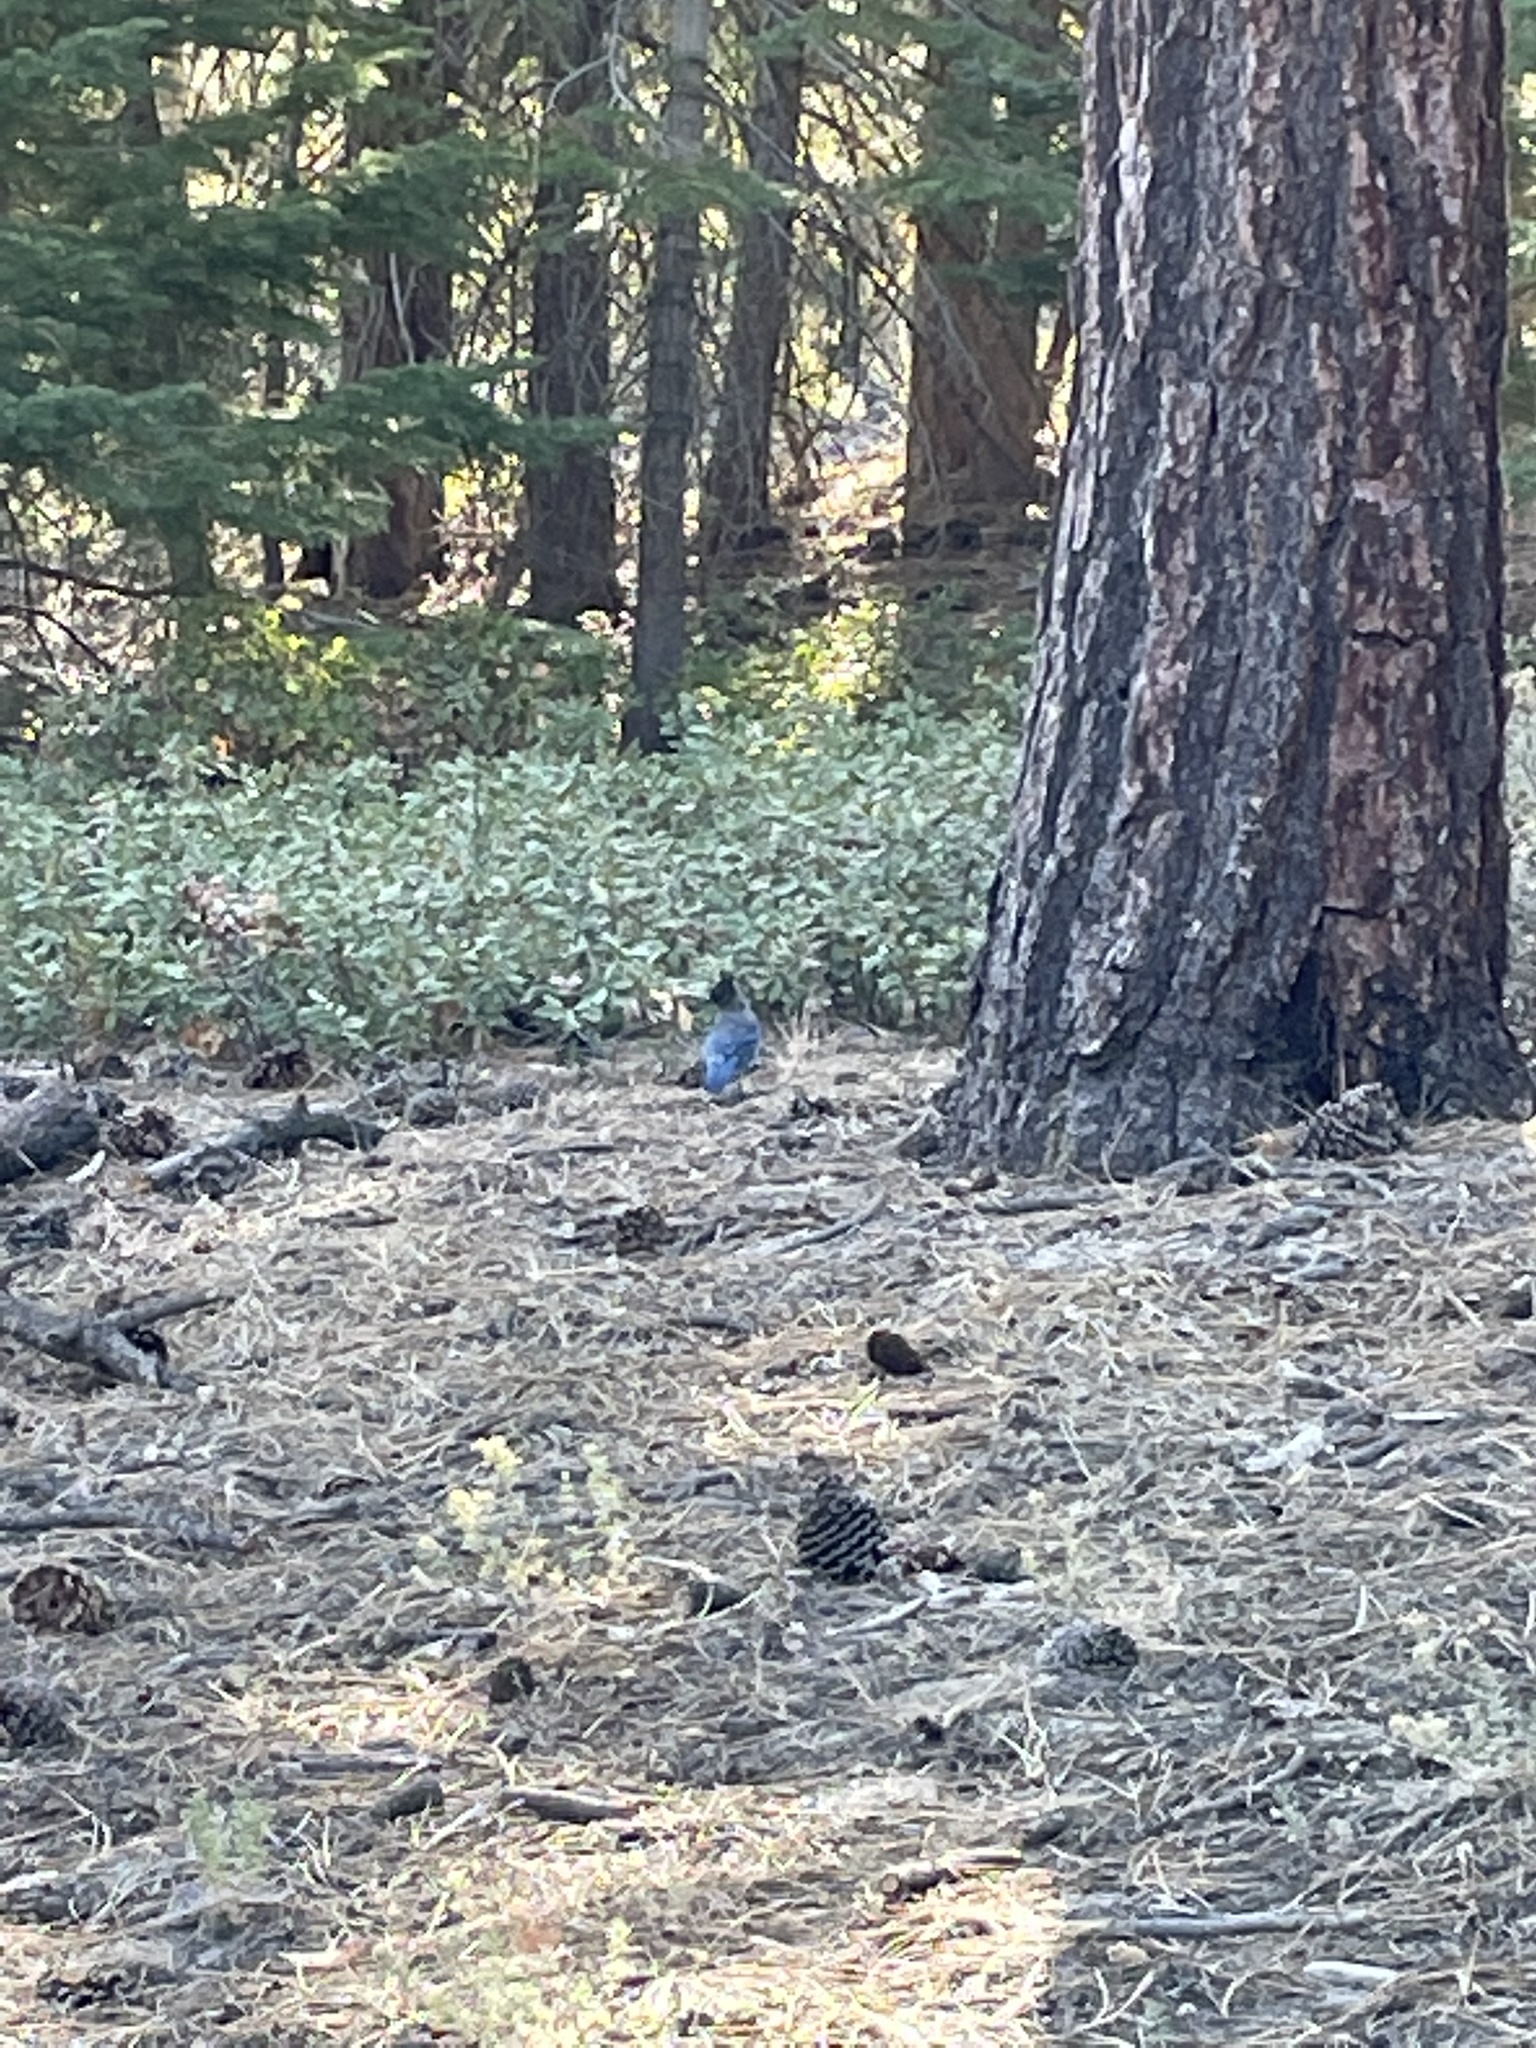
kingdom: Animalia
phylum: Chordata
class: Aves
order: Passeriformes
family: Corvidae
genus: Cyanocitta
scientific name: Cyanocitta stelleri
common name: Steller's jay
